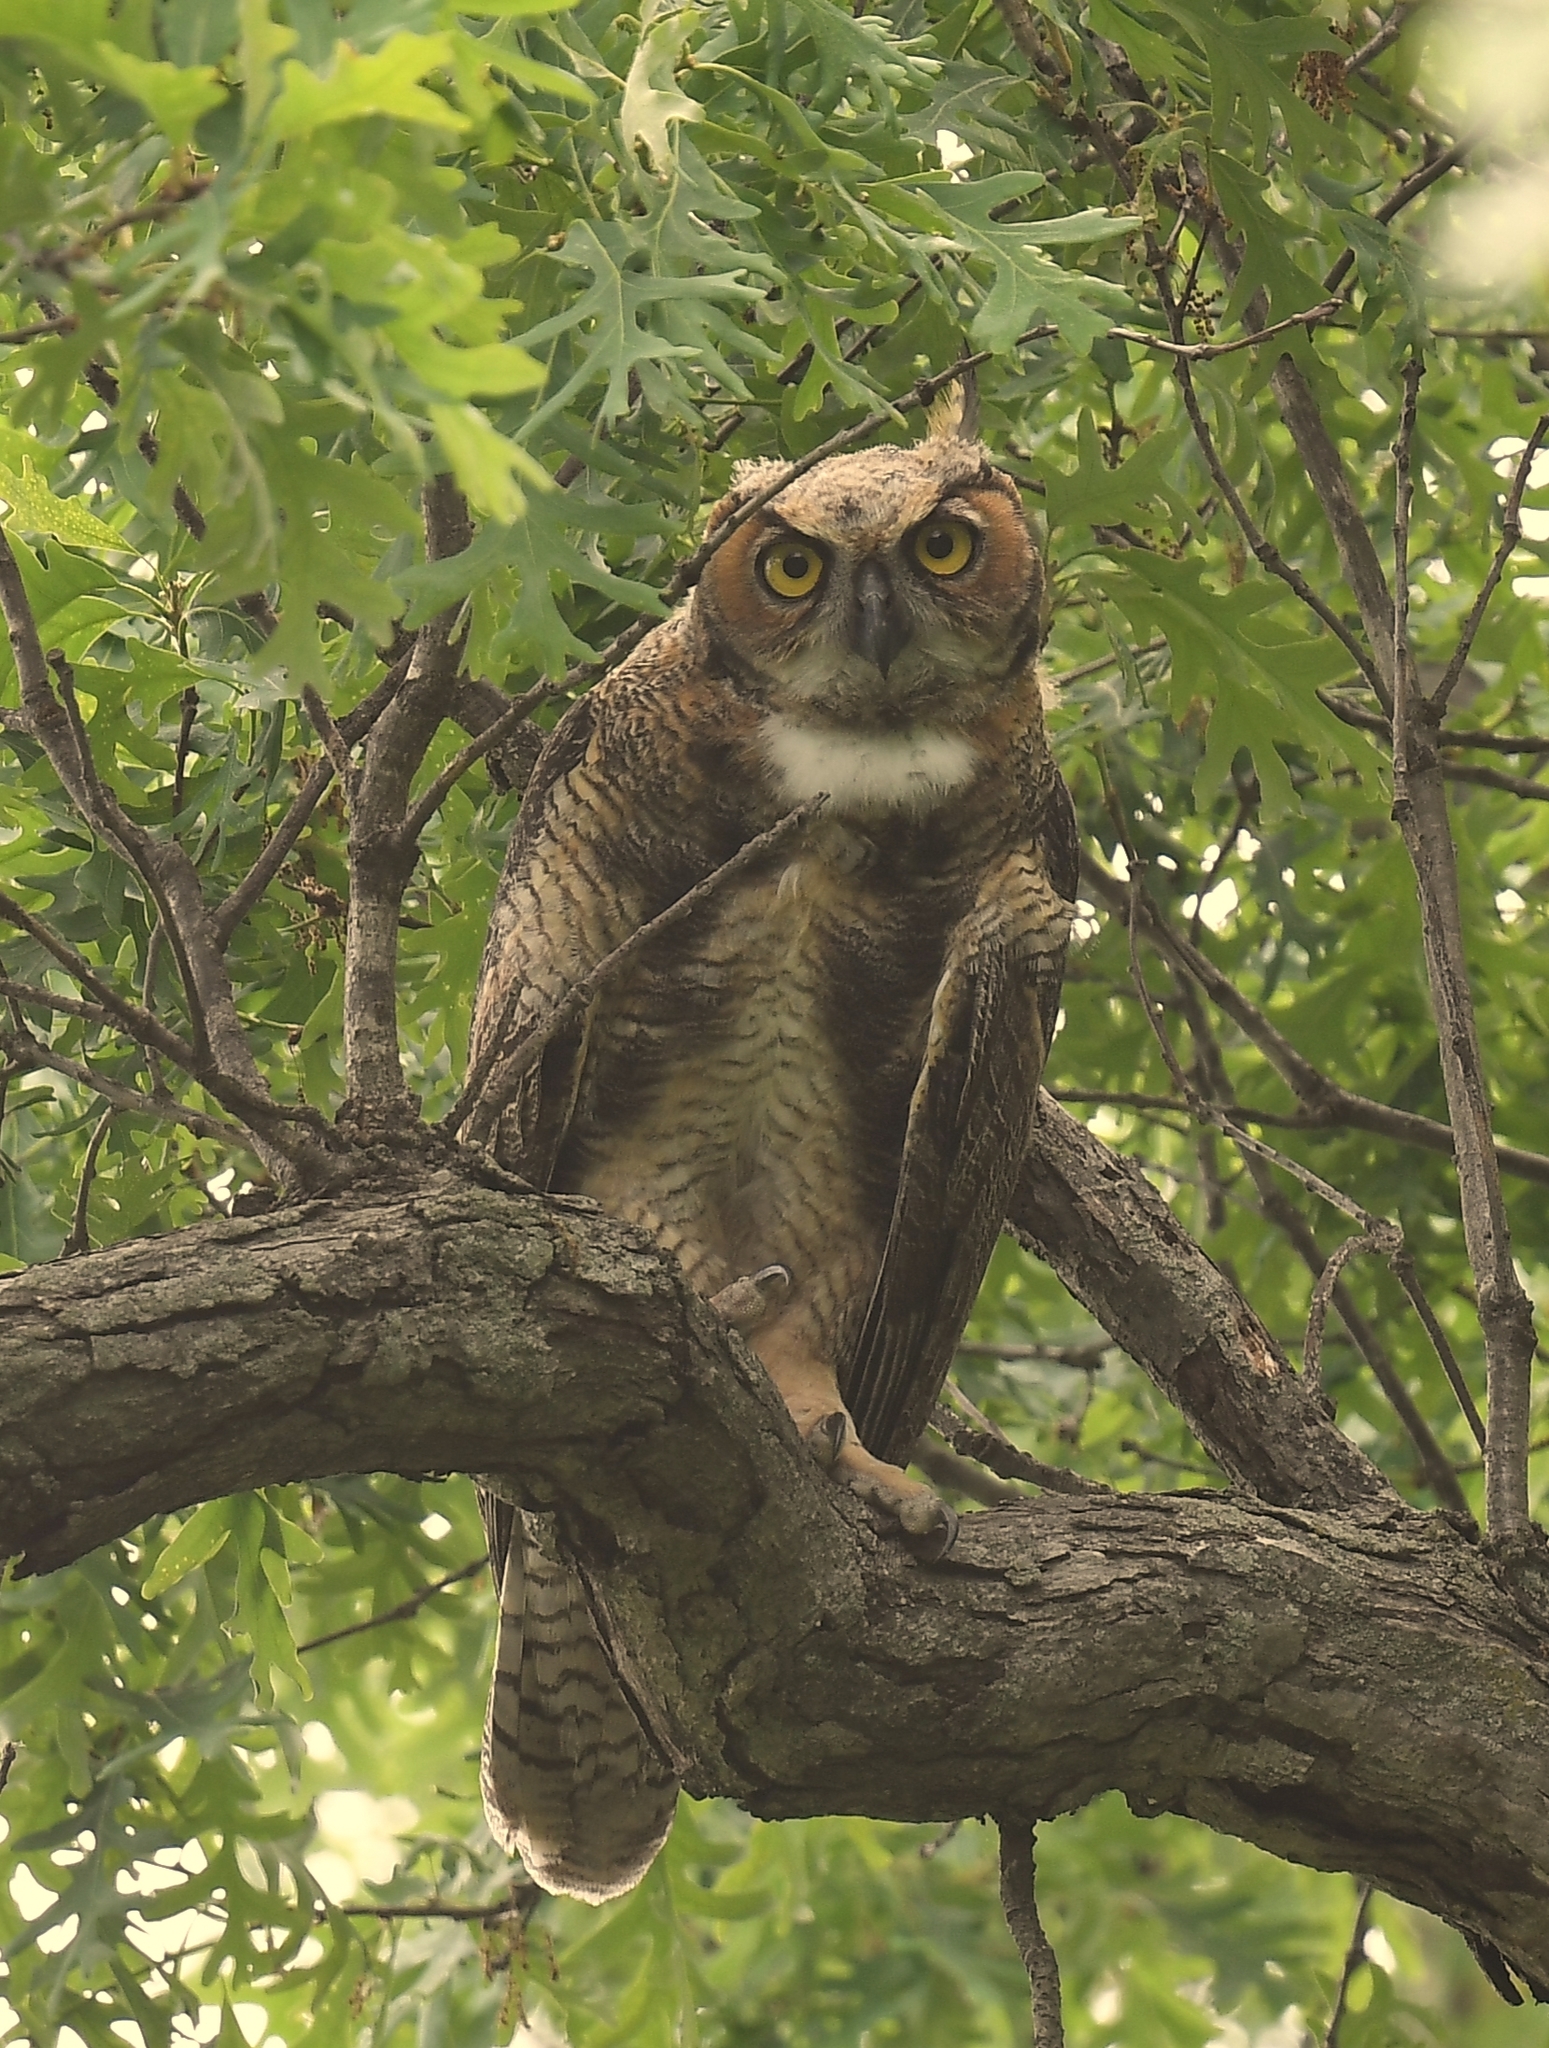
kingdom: Animalia
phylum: Chordata
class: Aves
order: Strigiformes
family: Strigidae
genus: Bubo
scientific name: Bubo virginianus
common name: Great horned owl
